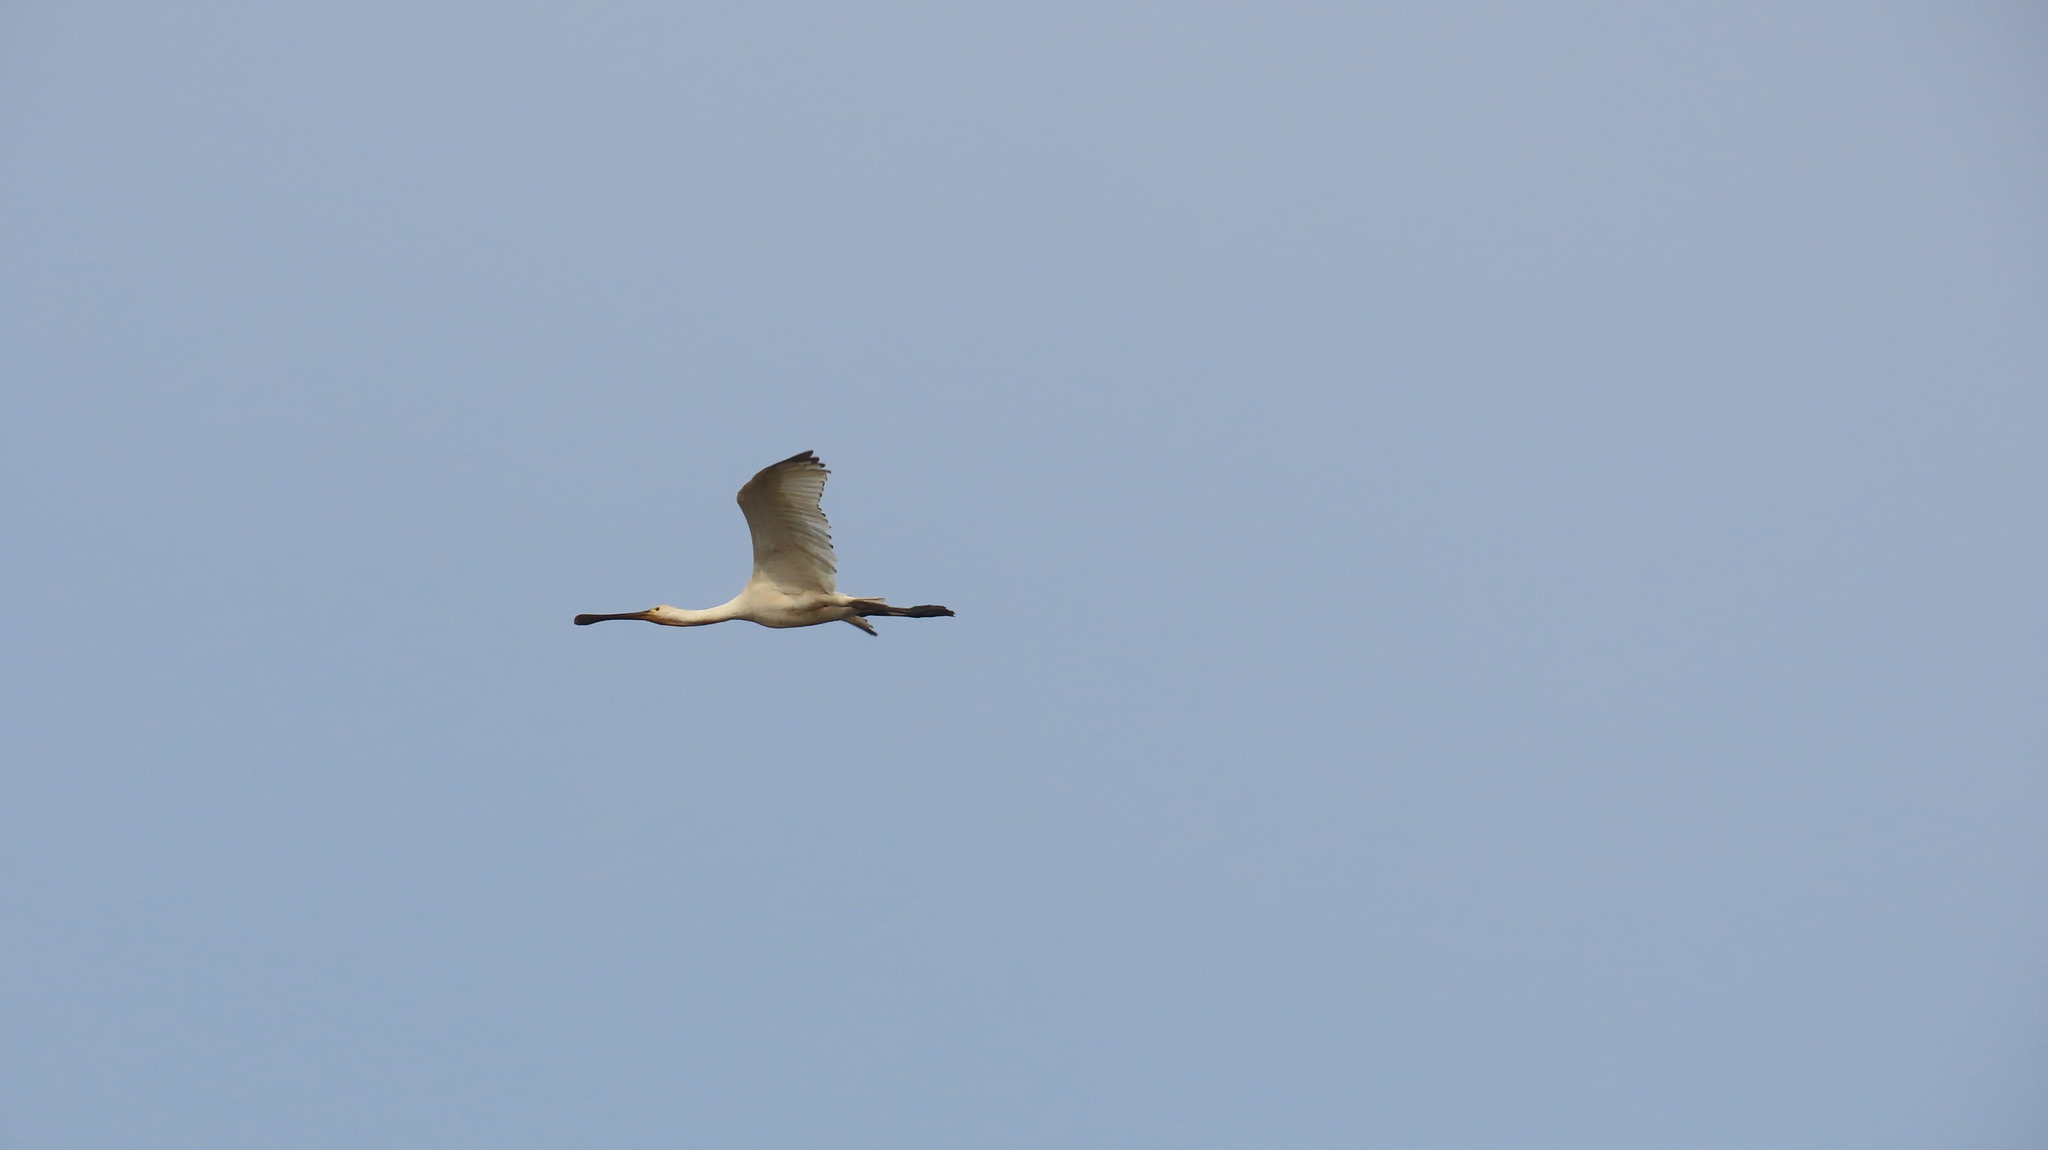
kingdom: Animalia
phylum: Chordata
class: Aves
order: Pelecaniformes
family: Threskiornithidae
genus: Platalea
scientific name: Platalea leucorodia
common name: Eurasian spoonbill
